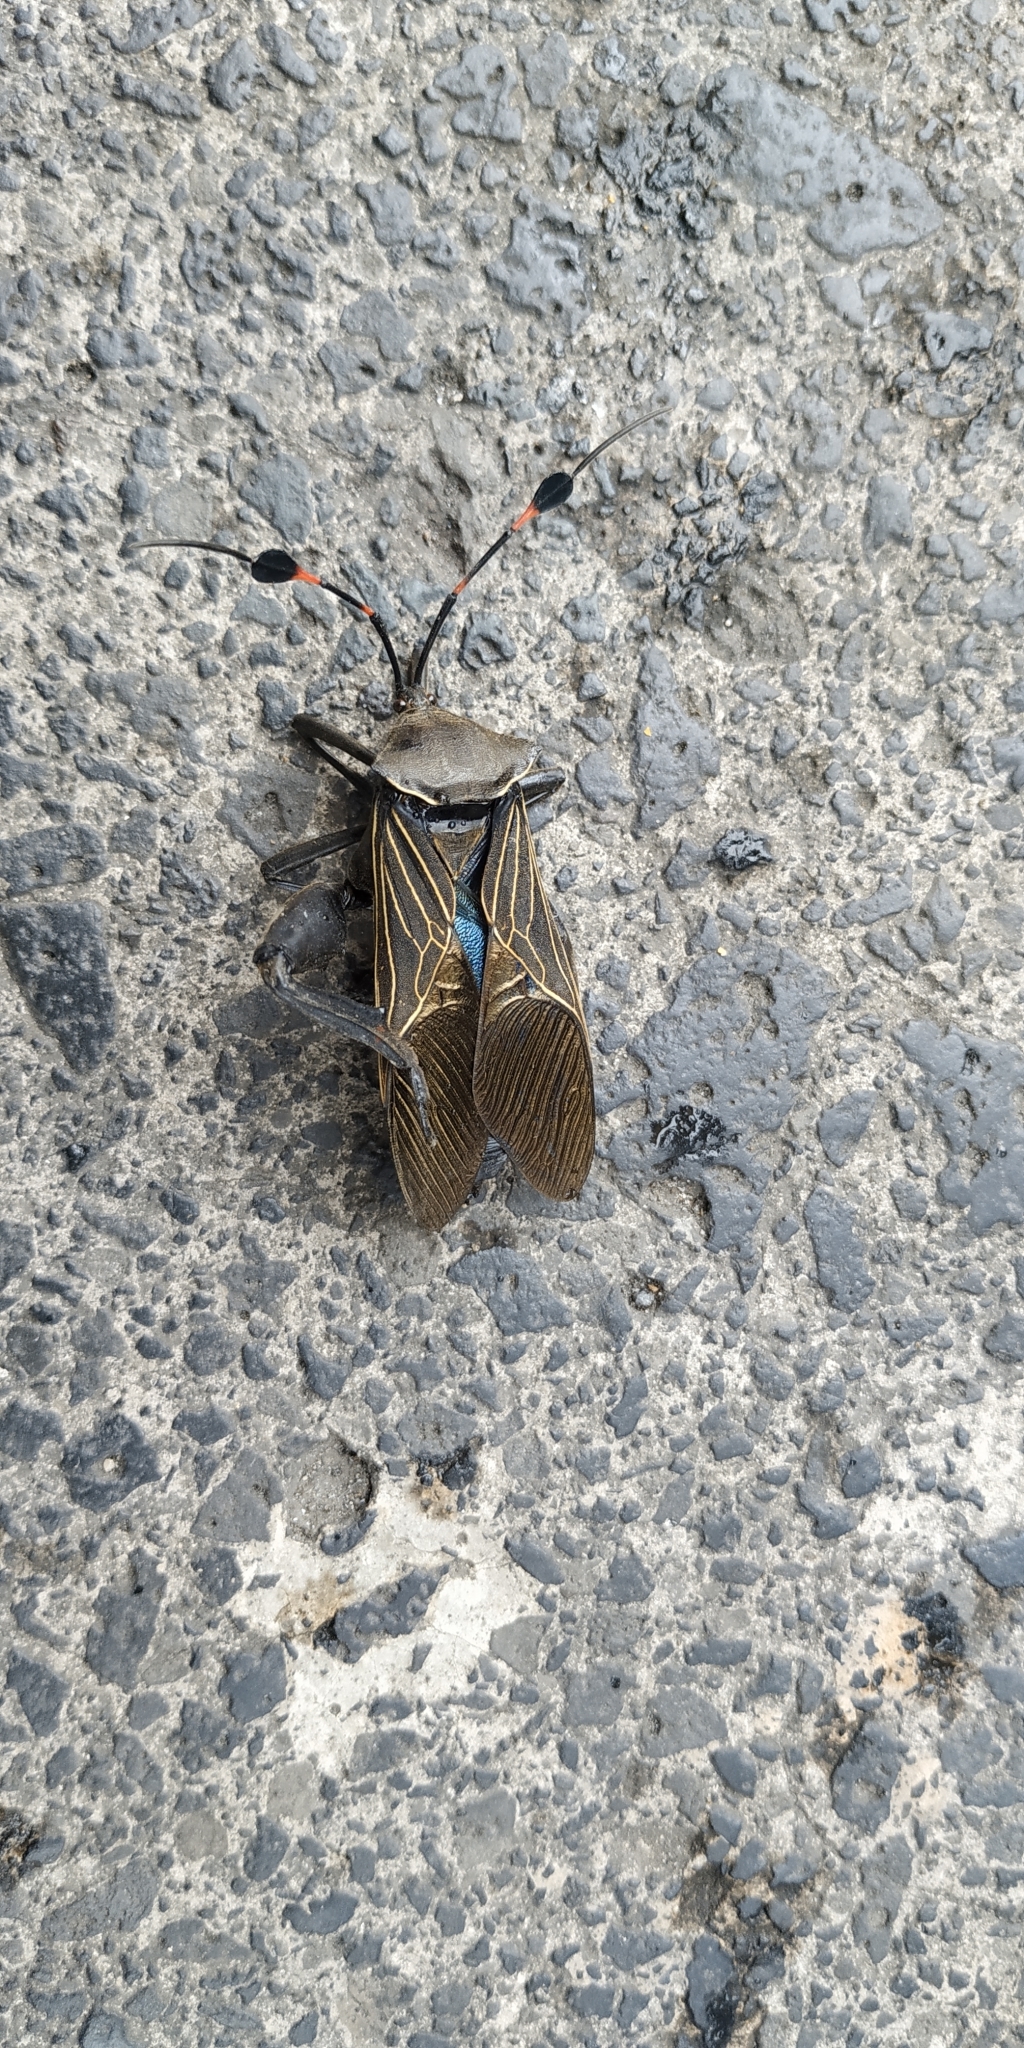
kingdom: Animalia
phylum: Arthropoda
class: Insecta
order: Hemiptera
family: Coreidae
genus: Thasus
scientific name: Thasus acutangulus
